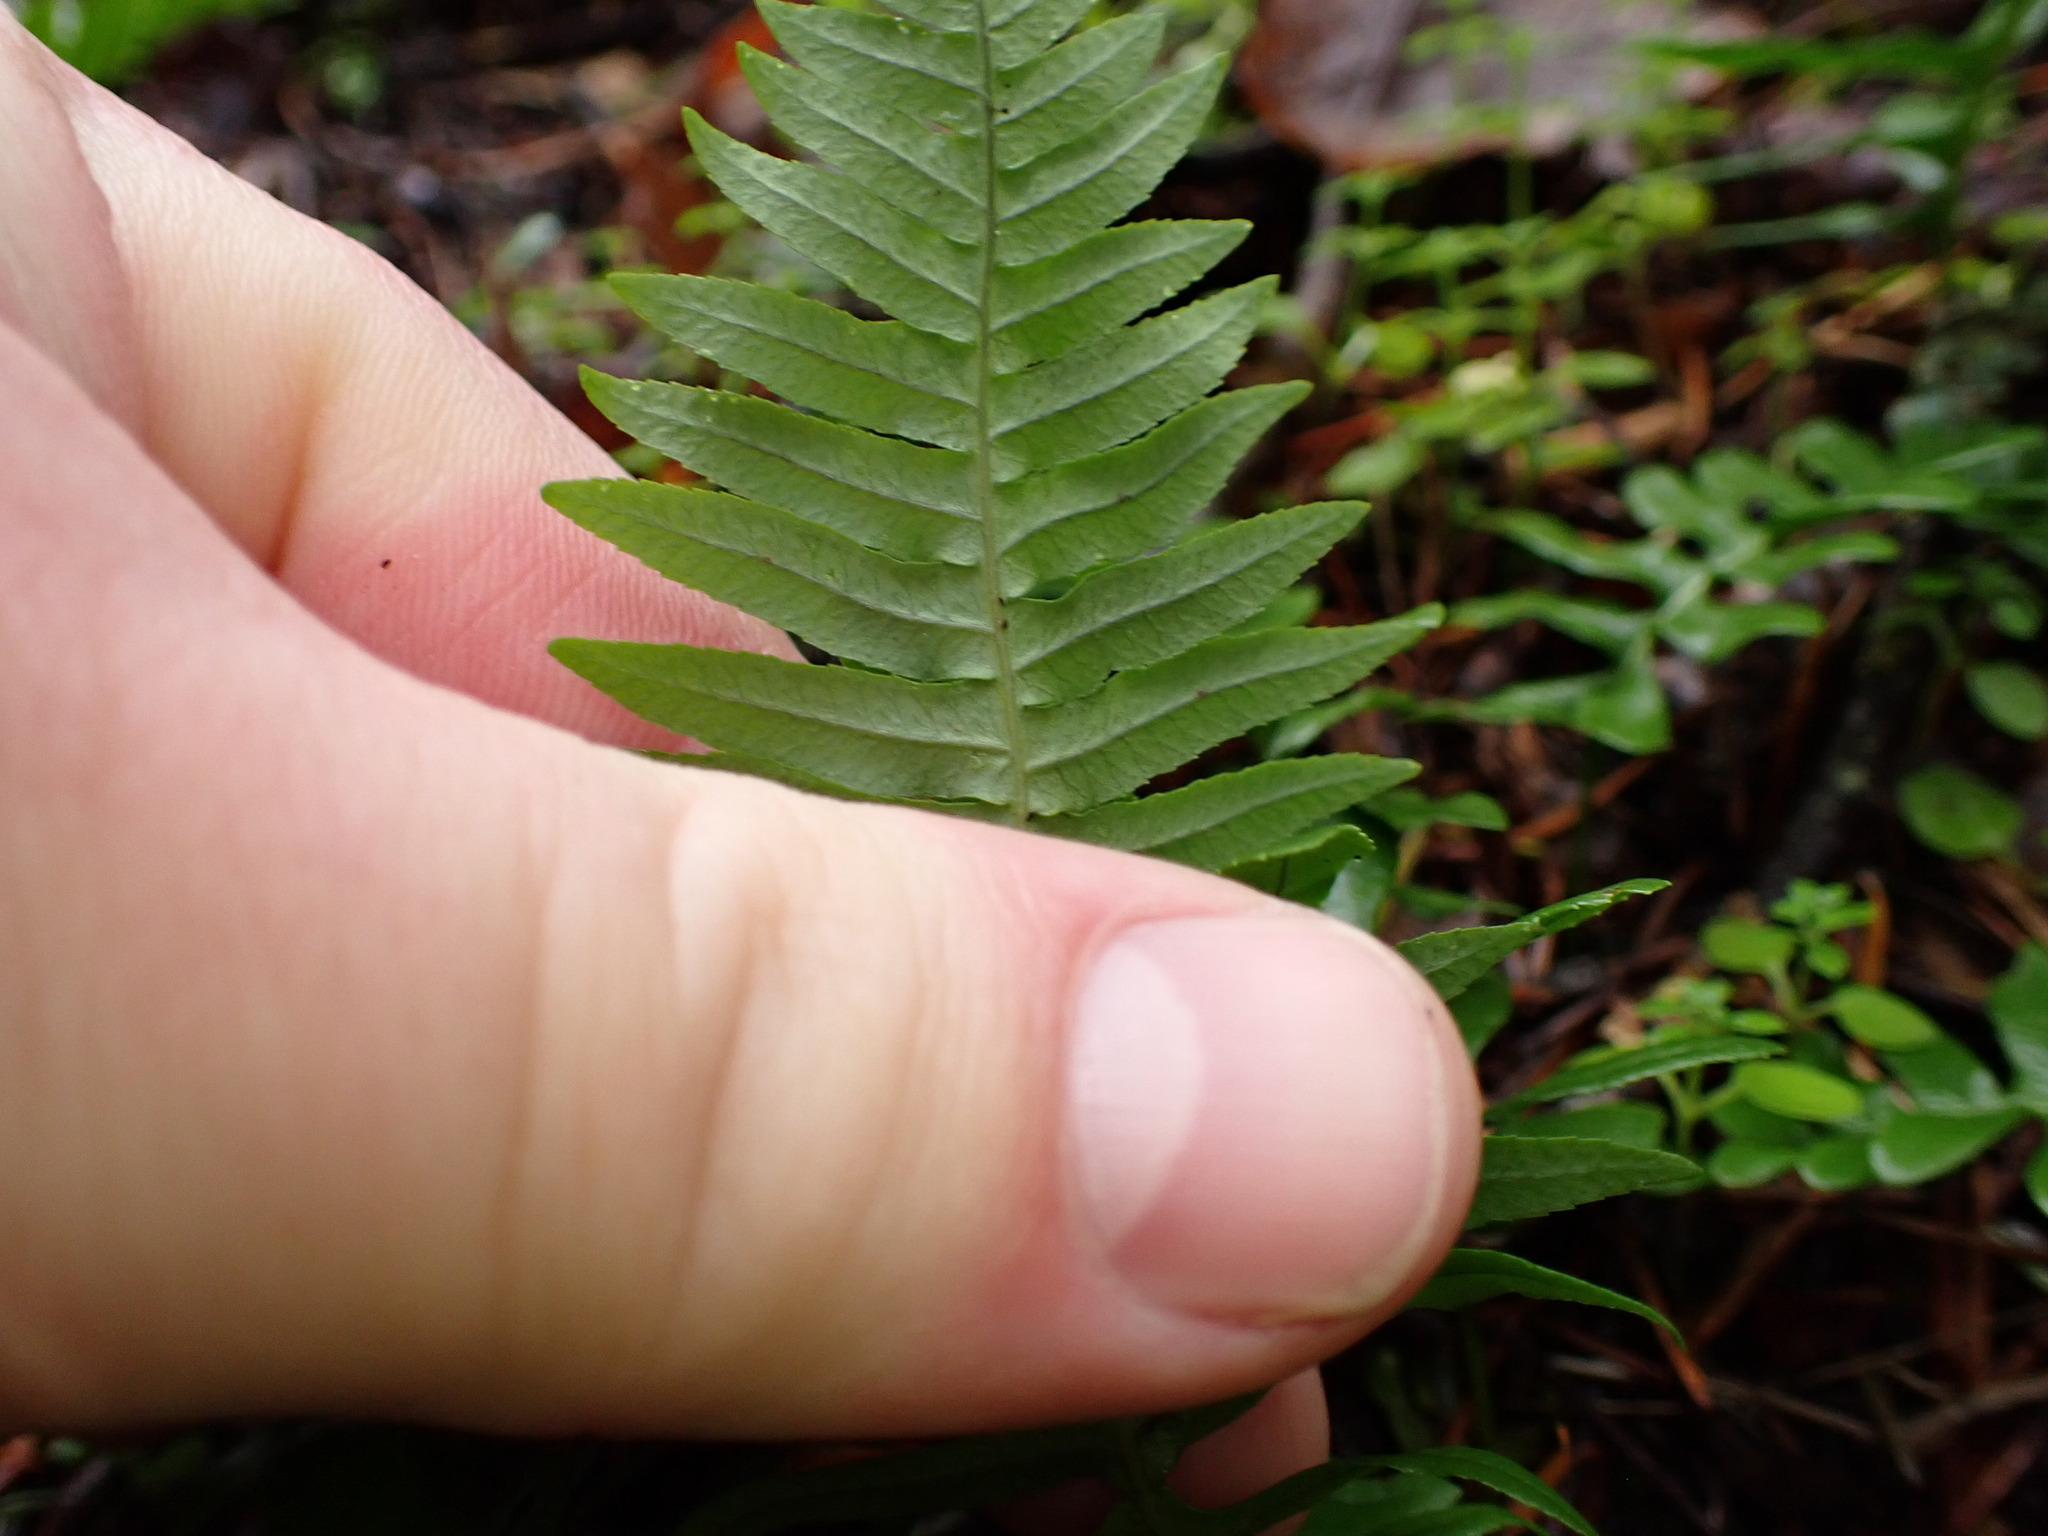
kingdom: Plantae
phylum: Tracheophyta
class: Polypodiopsida
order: Polypodiales
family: Polypodiaceae
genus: Polypodium
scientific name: Polypodium glycyrrhiza
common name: Licorice fern
